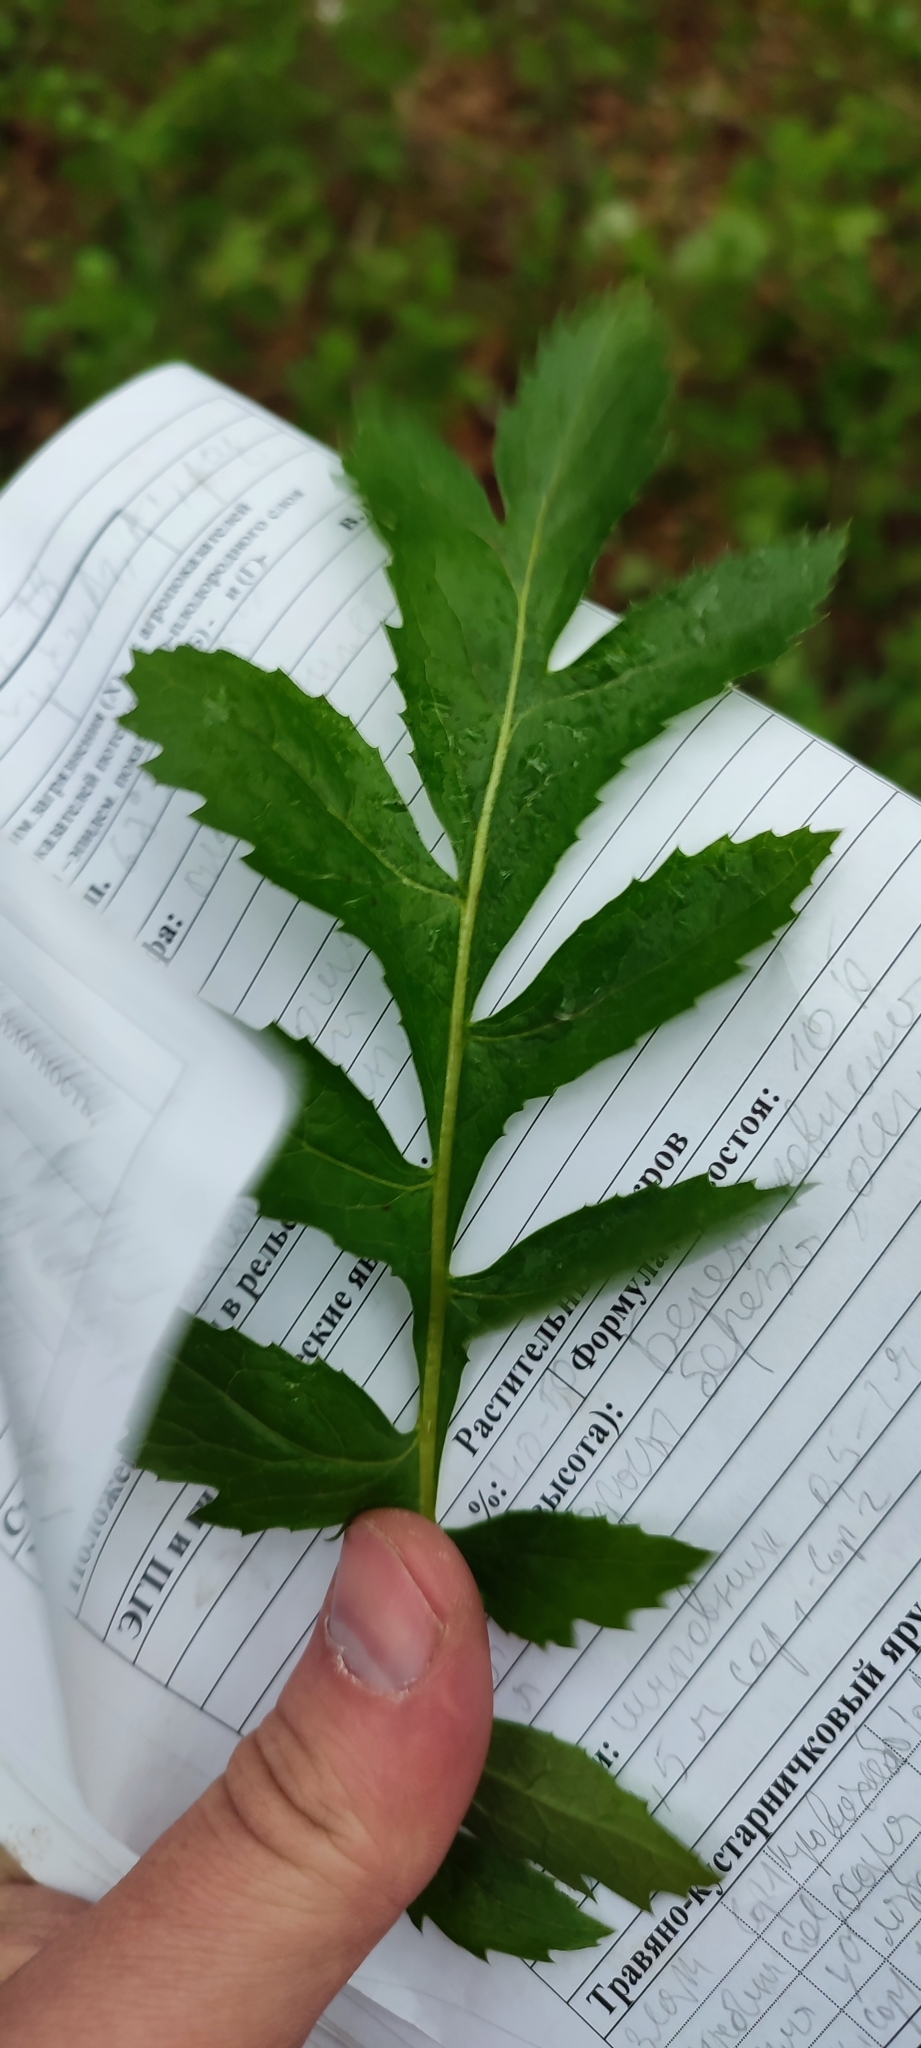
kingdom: Plantae
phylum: Tracheophyta
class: Magnoliopsida
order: Asterales
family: Asteraceae
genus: Serratula
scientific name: Serratula coronata
